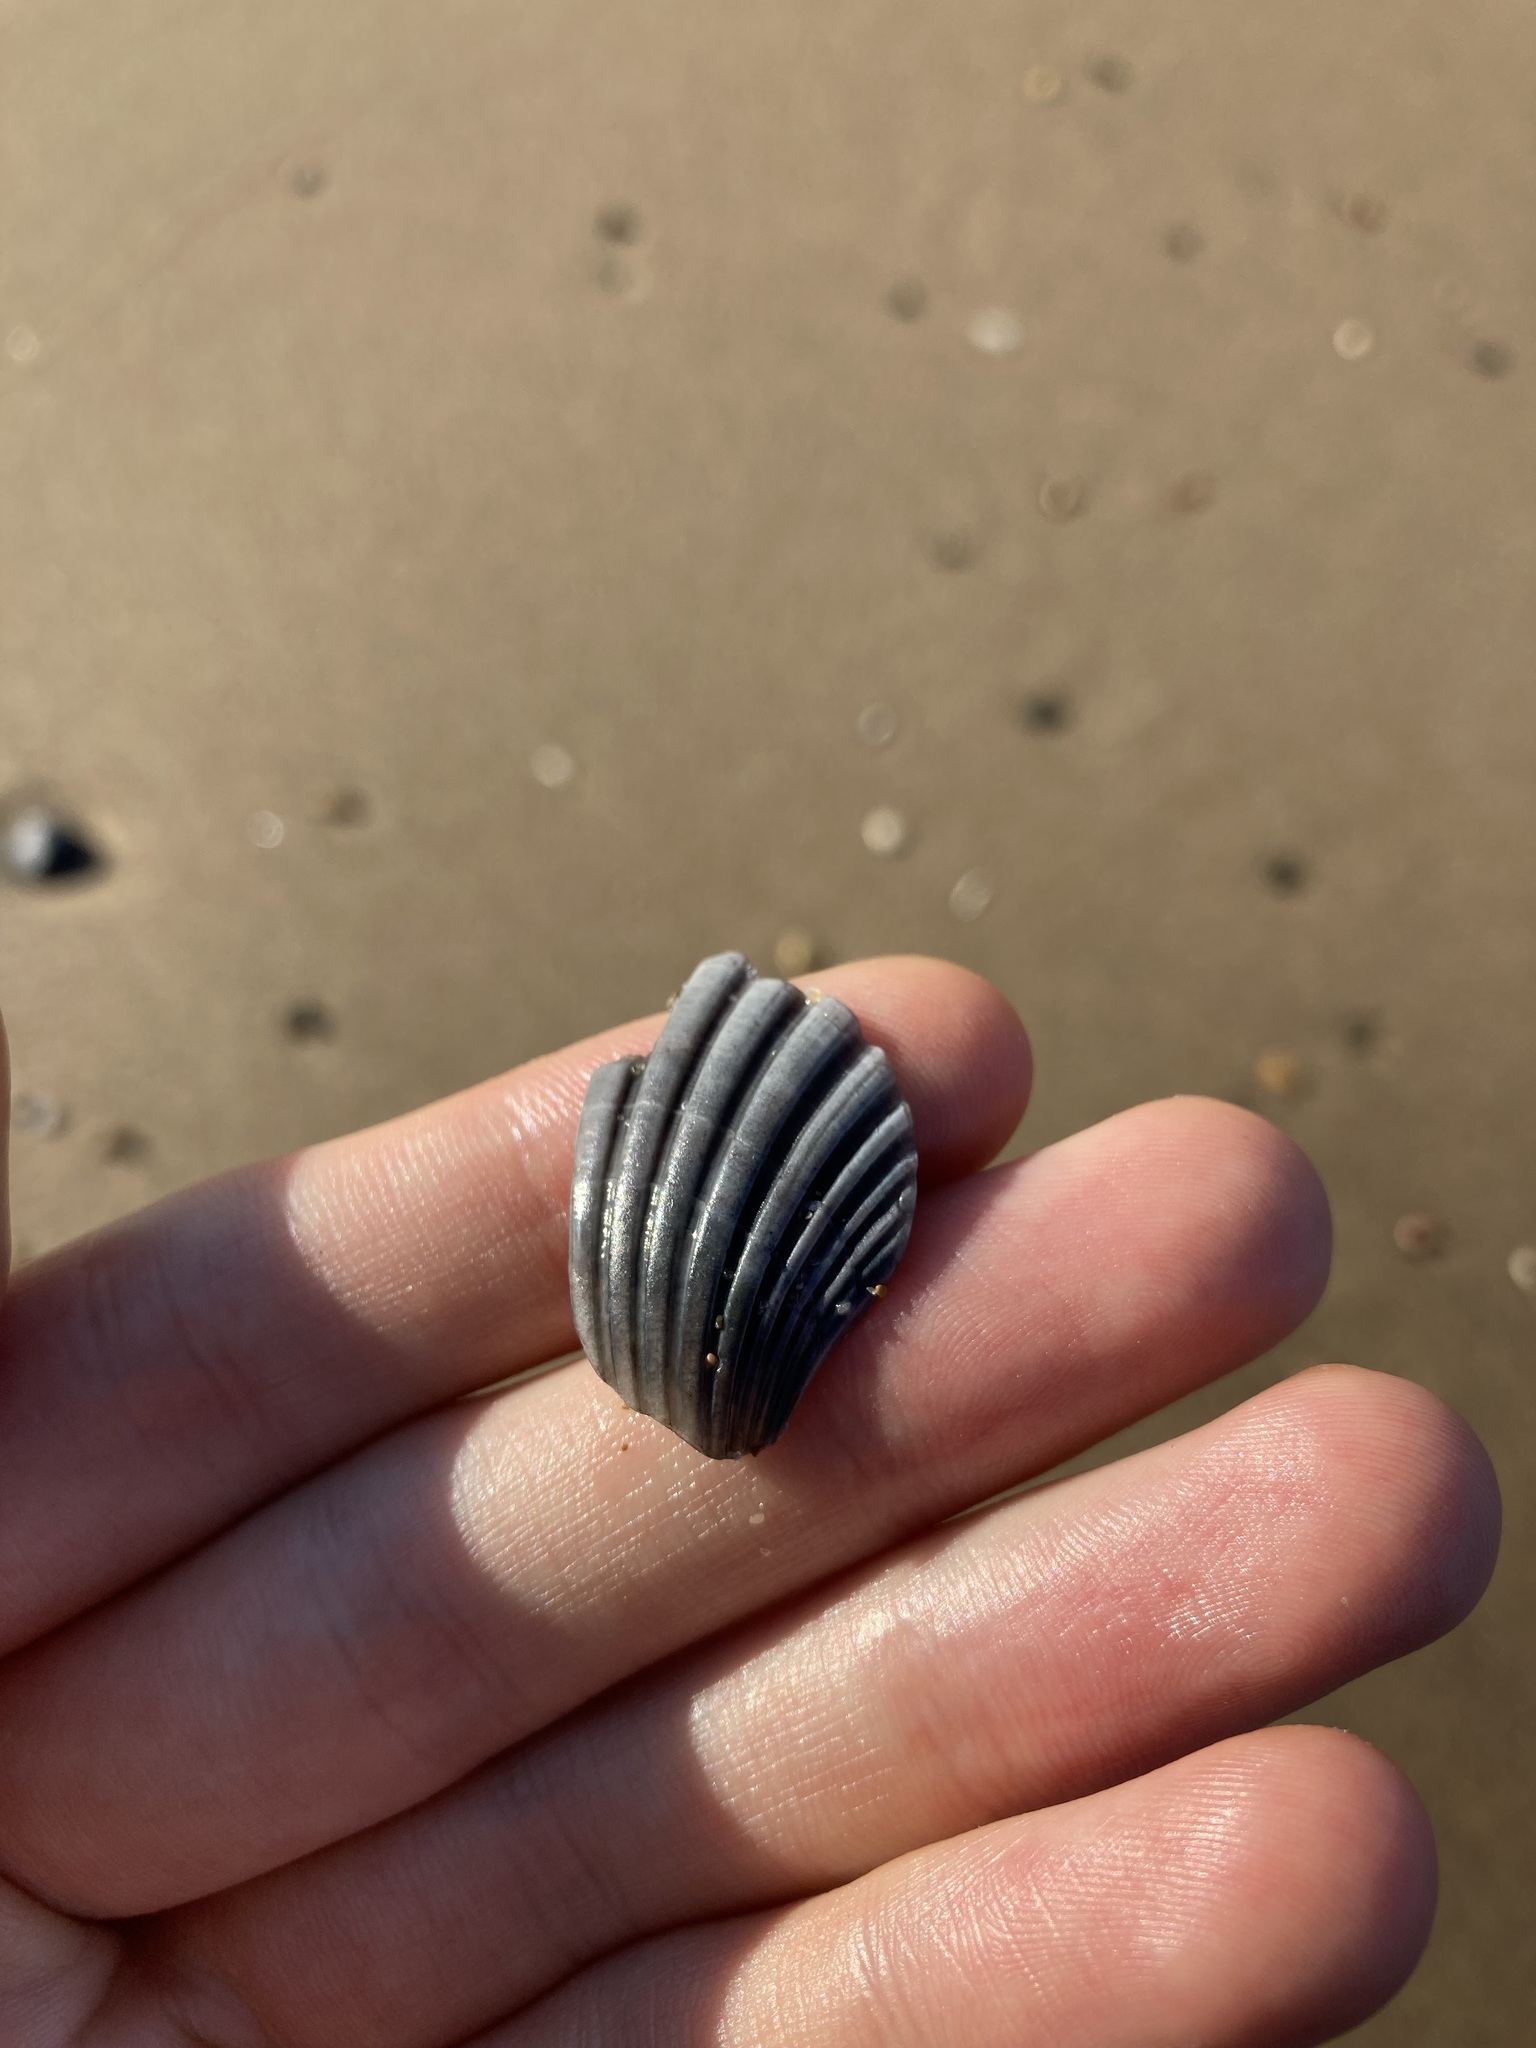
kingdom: Animalia
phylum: Mollusca
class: Bivalvia
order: Pectinida
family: Pectinidae
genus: Pecten
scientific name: Pecten fumatus
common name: Australian scallop
